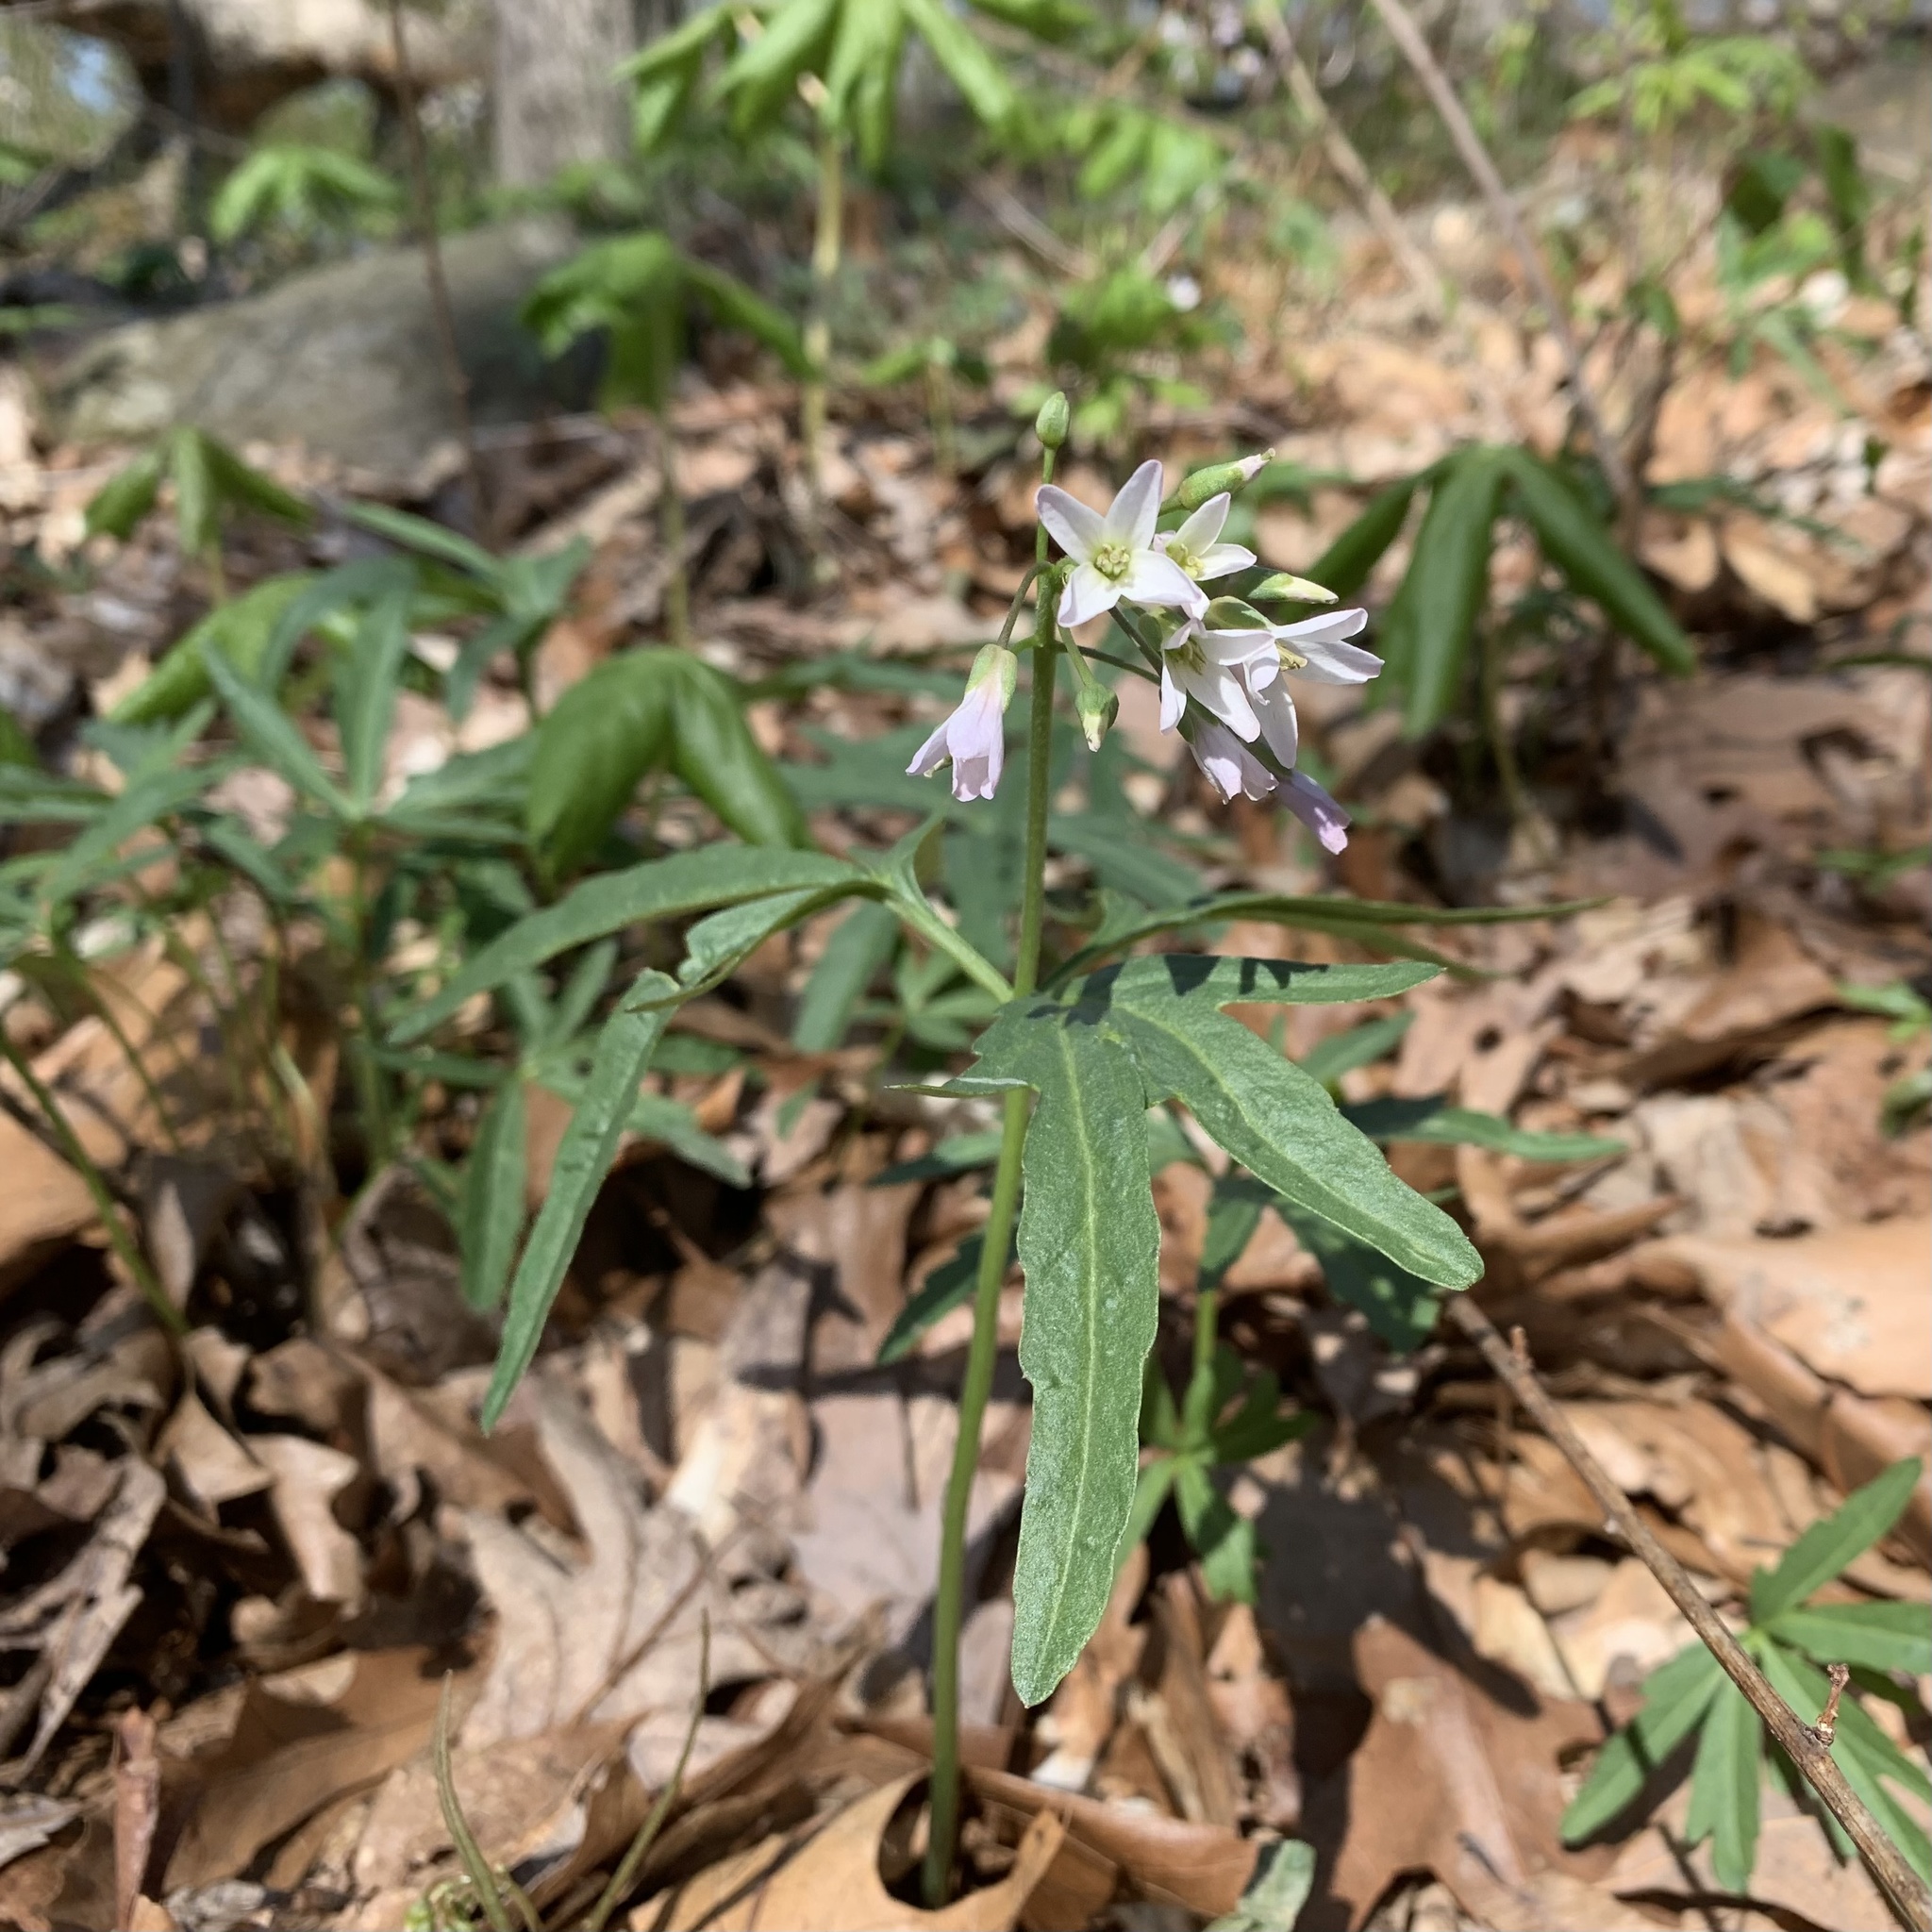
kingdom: Plantae
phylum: Tracheophyta
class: Magnoliopsida
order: Brassicales
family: Brassicaceae
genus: Cardamine
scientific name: Cardamine concatenata
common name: Cut-leaf toothcup
